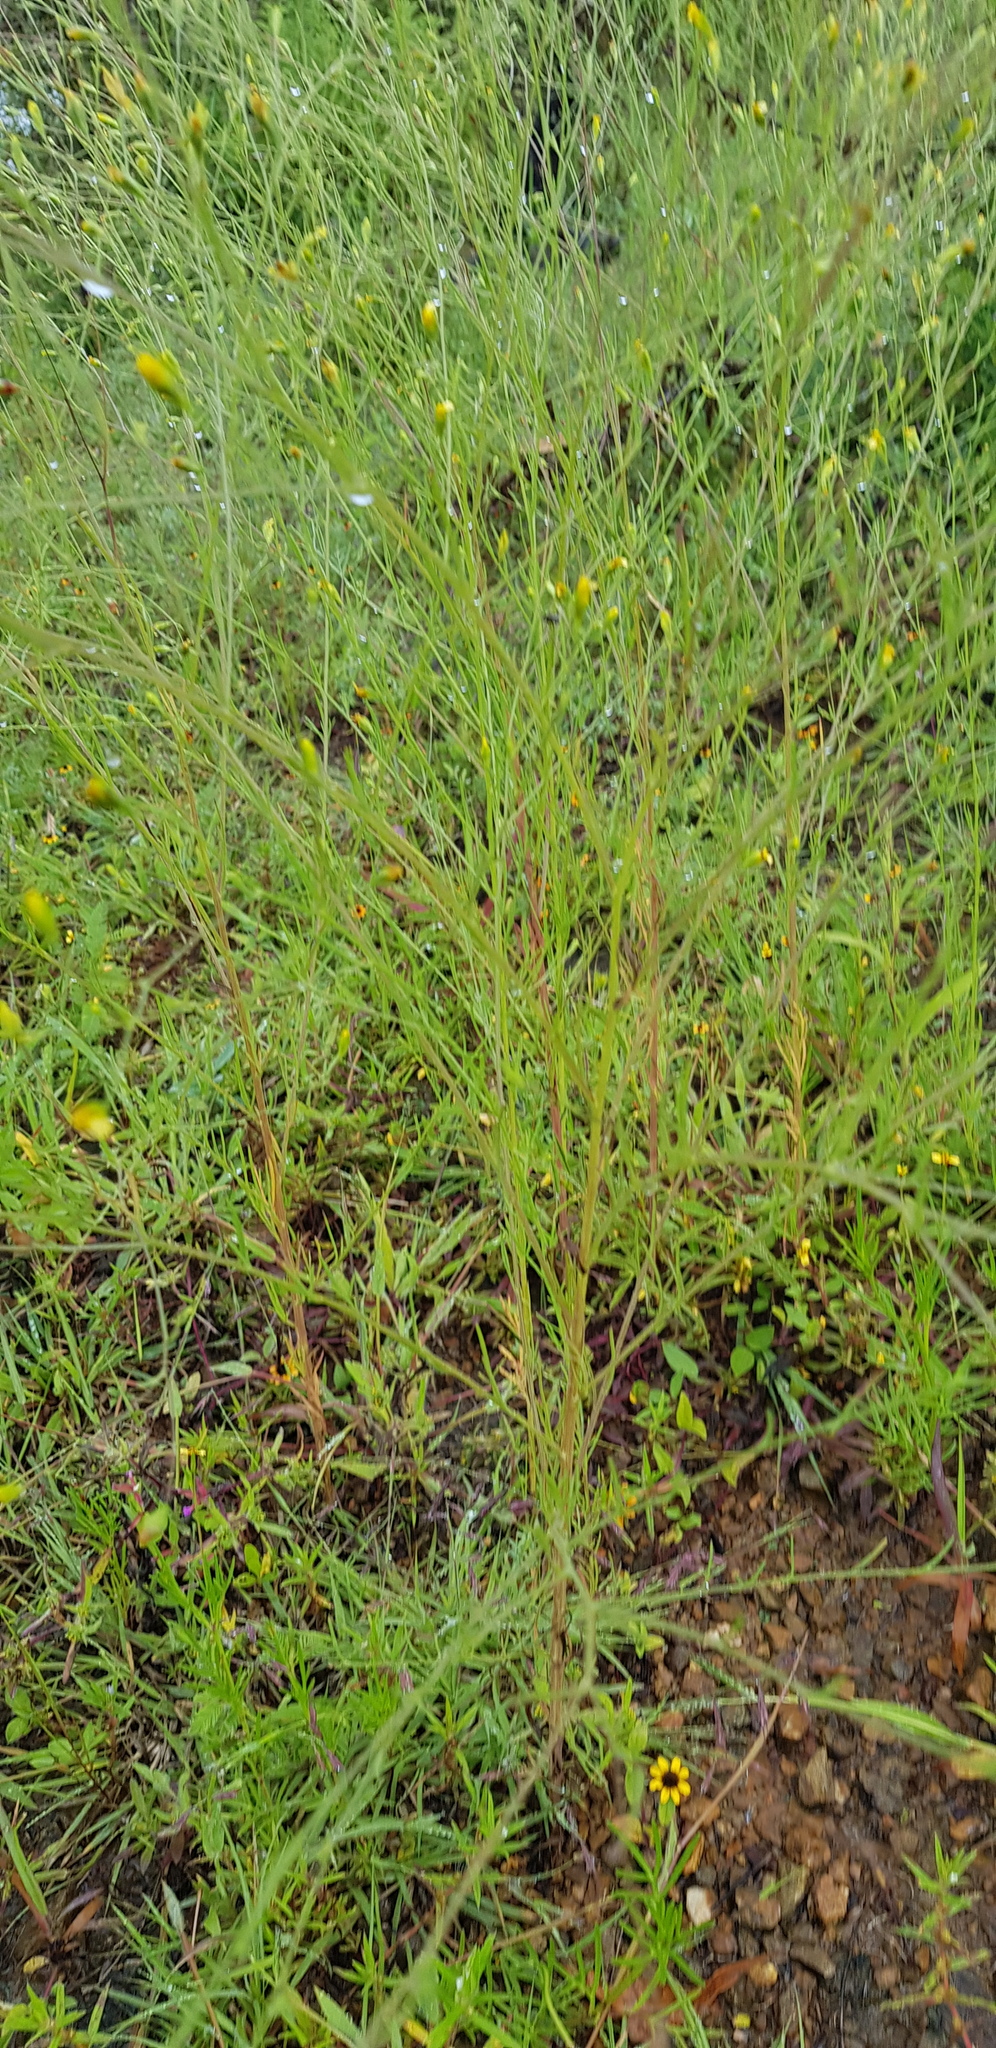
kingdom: Plantae
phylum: Tracheophyta
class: Magnoliopsida
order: Asterales
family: Asteraceae
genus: Schkuhria
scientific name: Schkuhria pinnata
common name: Dwarf marigold
